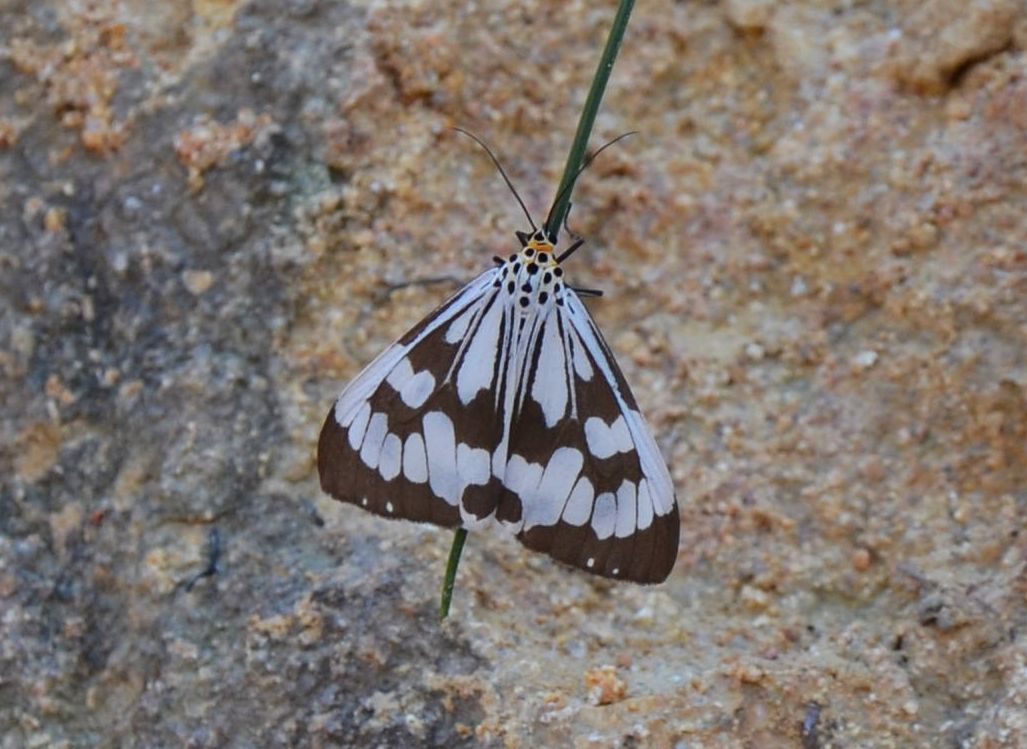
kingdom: Animalia
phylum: Arthropoda
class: Insecta
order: Lepidoptera
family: Erebidae
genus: Nyctemera
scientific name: Nyctemera adversata
